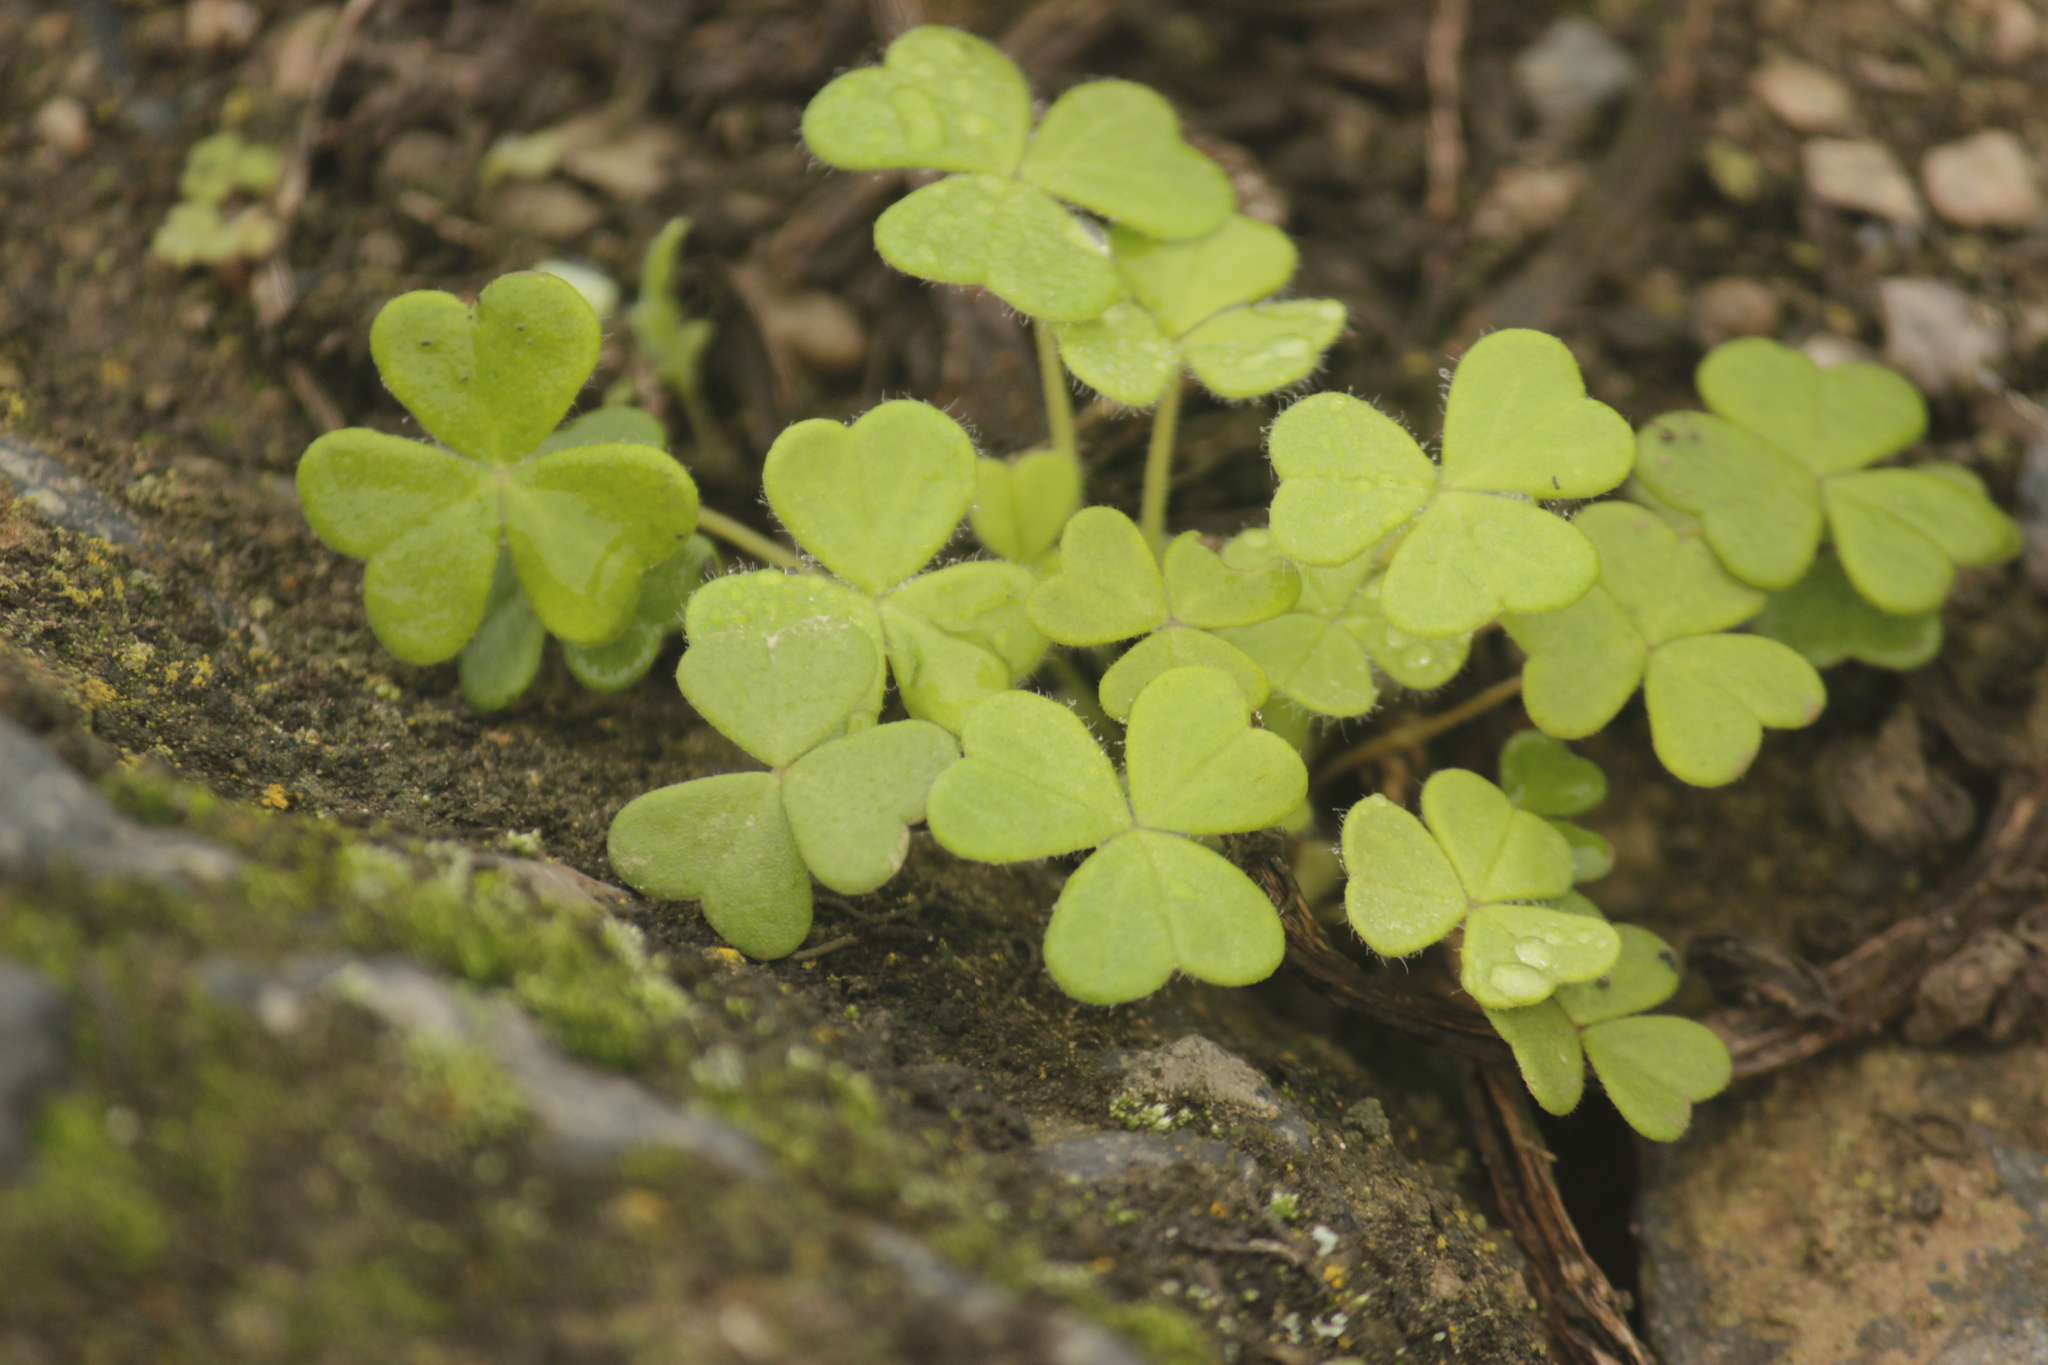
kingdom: Plantae
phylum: Tracheophyta
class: Magnoliopsida
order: Oxalidales
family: Oxalidaceae
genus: Oxalis
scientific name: Oxalis lomana
